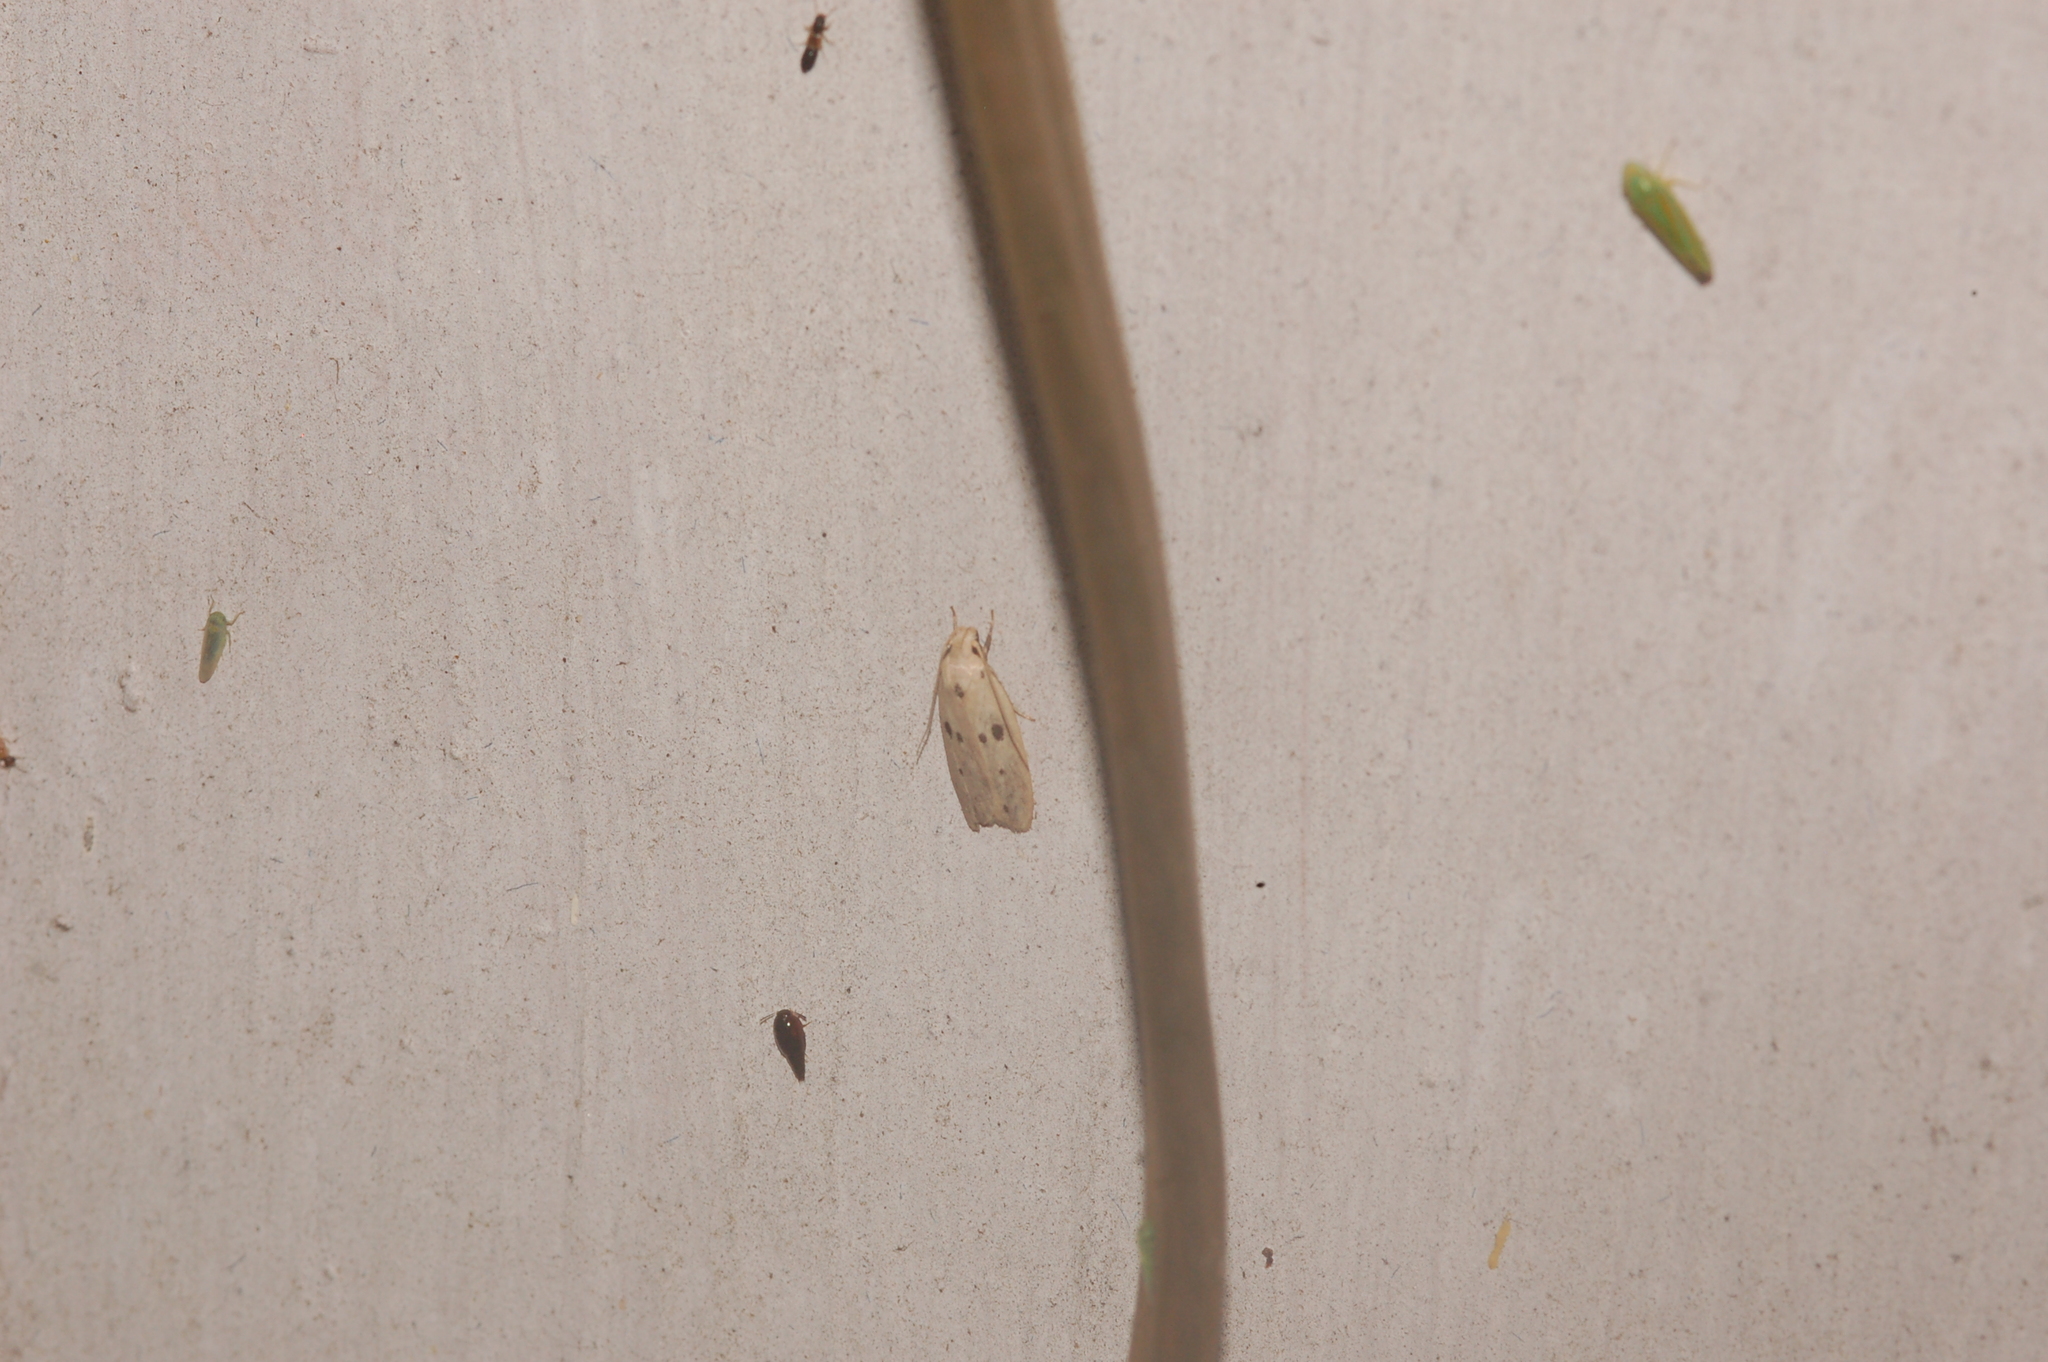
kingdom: Animalia
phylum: Arthropoda
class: Insecta
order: Lepidoptera
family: Peleopodidae
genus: Scythropiodes
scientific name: Scythropiodes issikii
